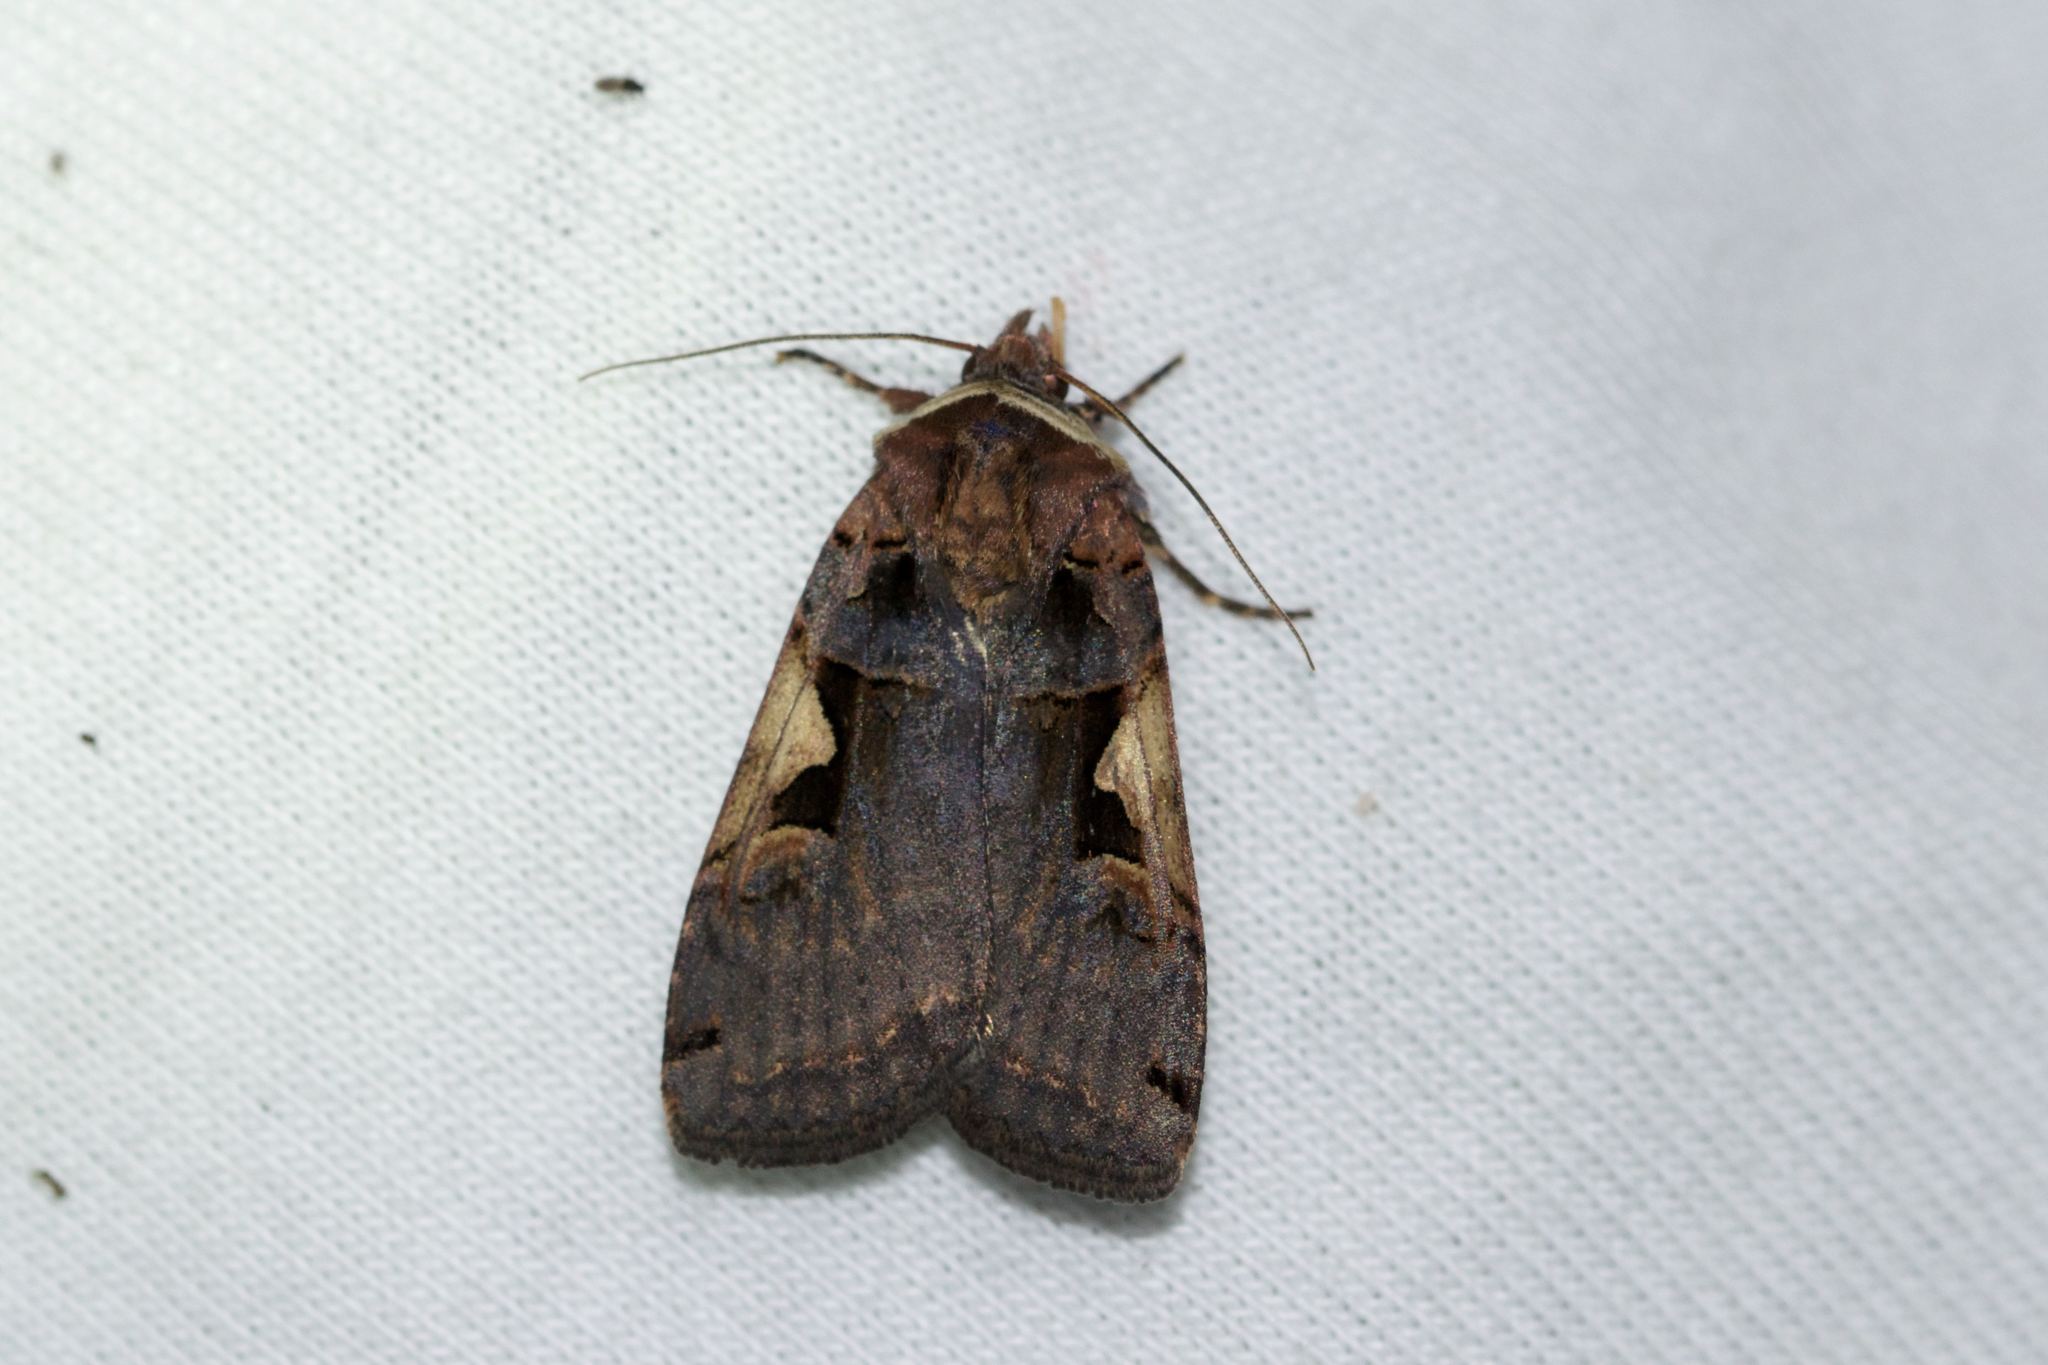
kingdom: Animalia
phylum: Arthropoda
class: Insecta
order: Lepidoptera
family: Noctuidae
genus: Xestia
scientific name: Xestia
